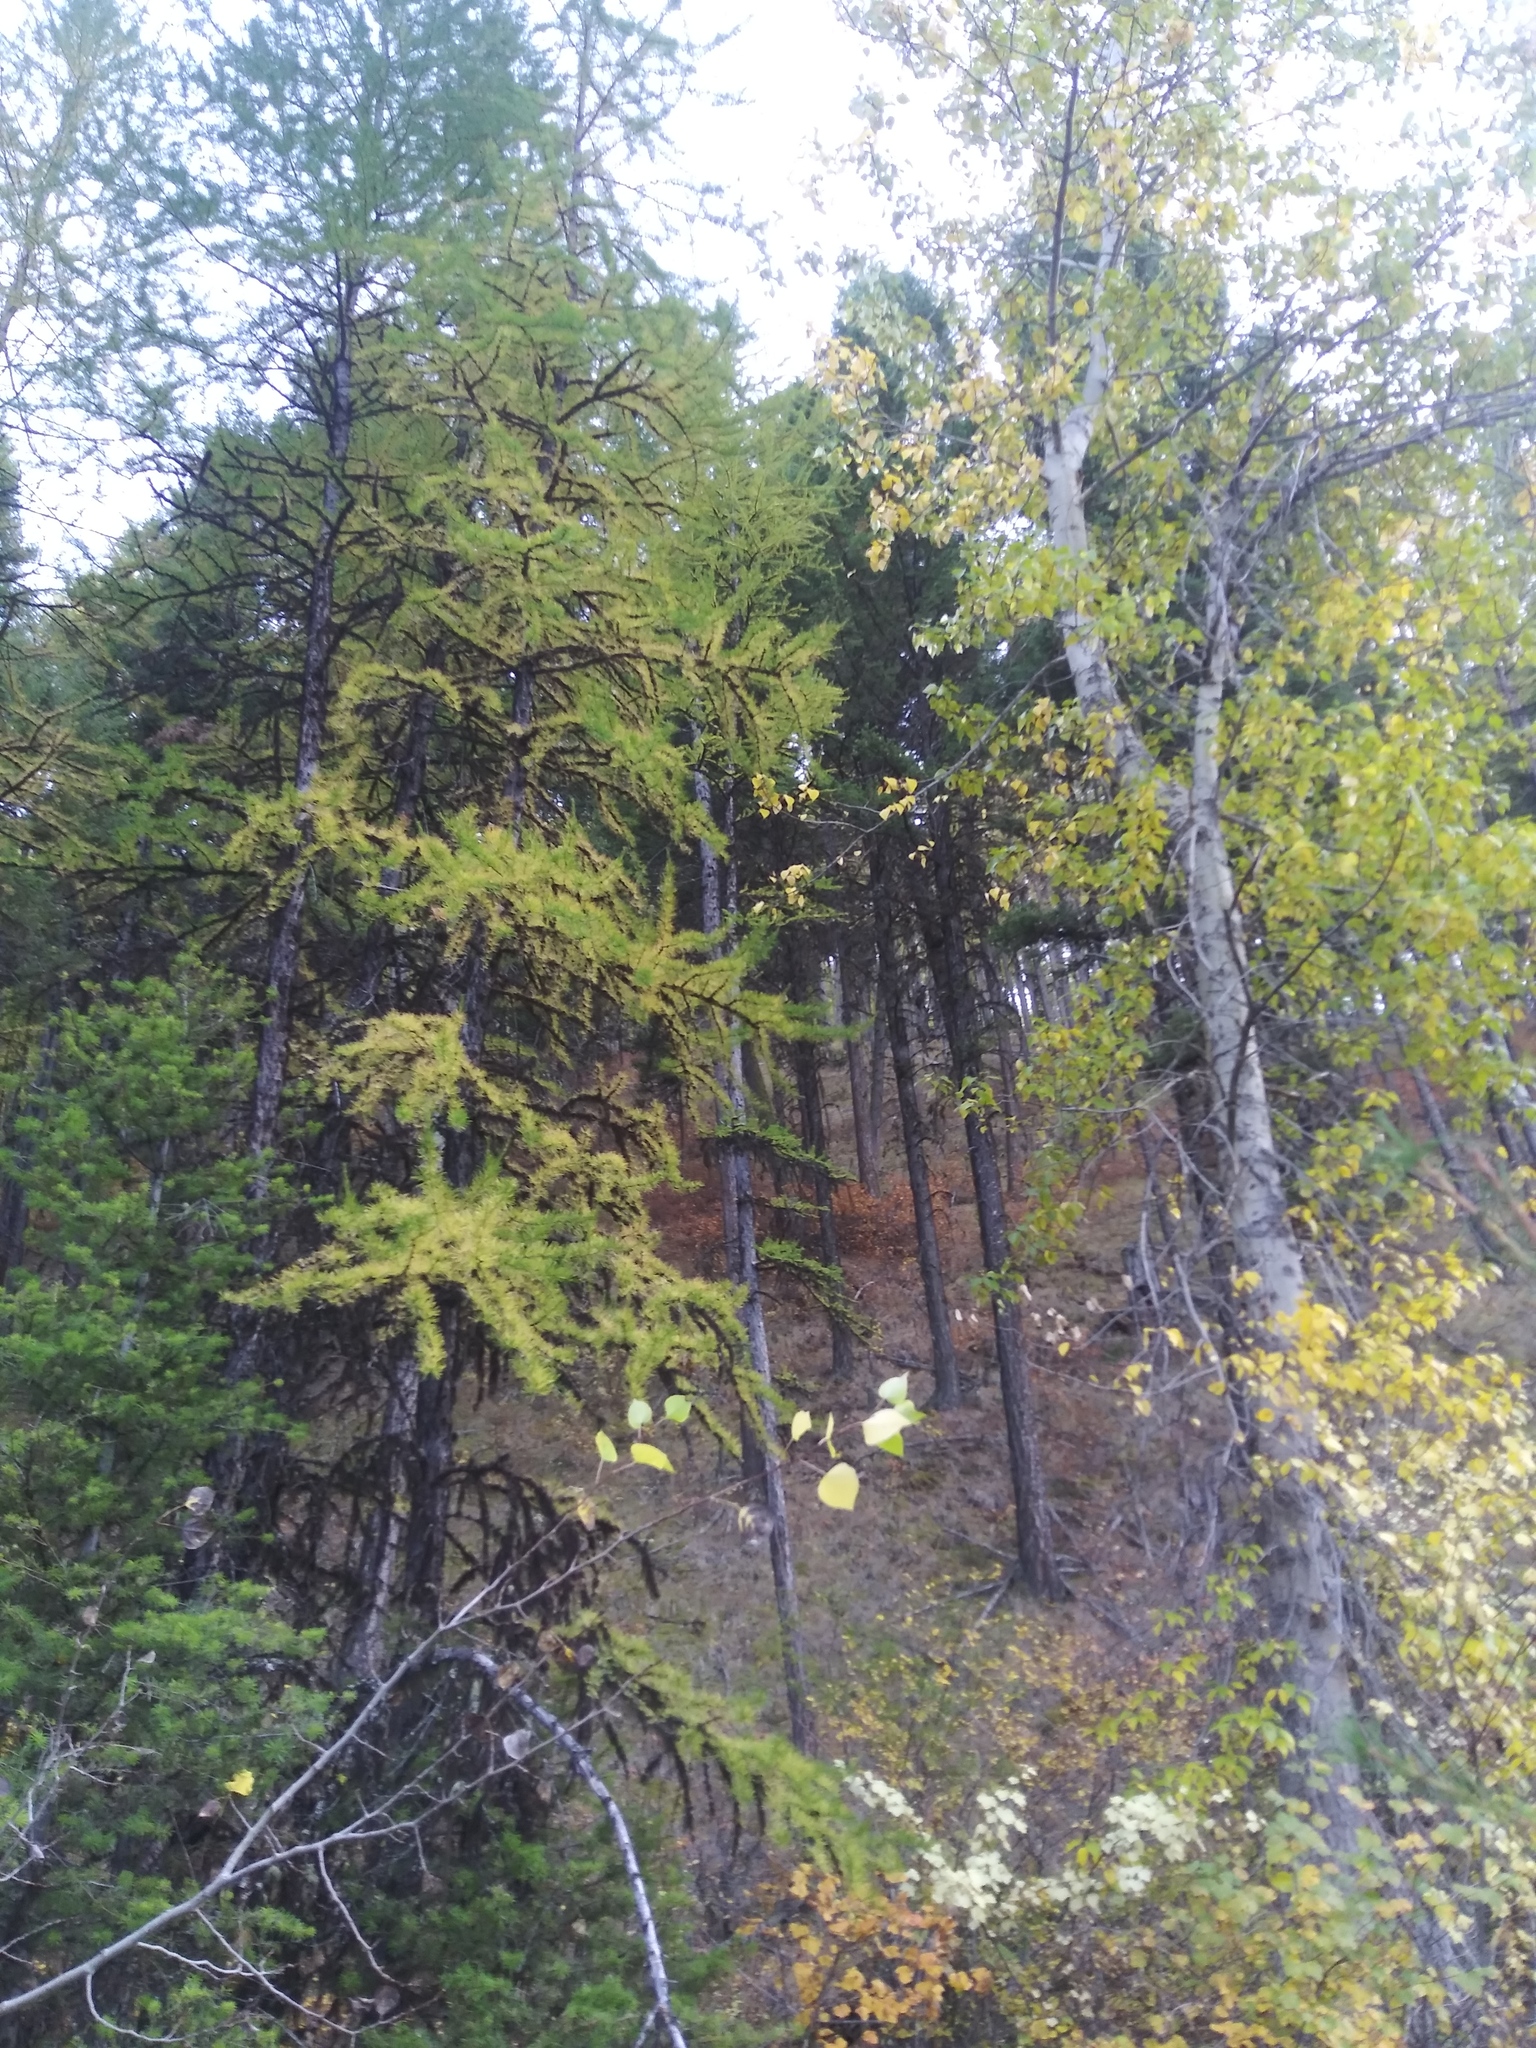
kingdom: Plantae
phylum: Tracheophyta
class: Pinopsida
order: Pinales
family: Pinaceae
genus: Larix
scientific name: Larix occidentalis
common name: Western larch
